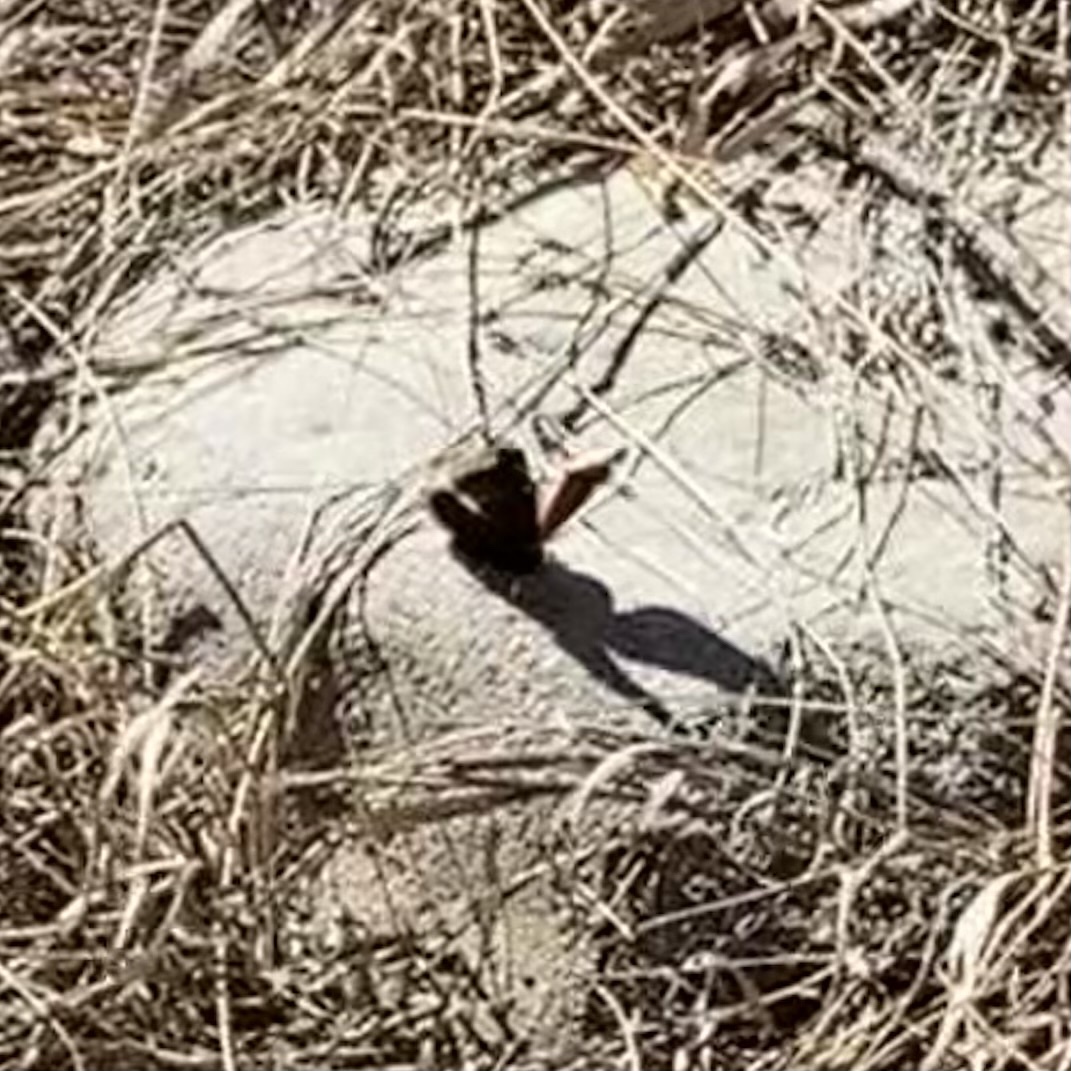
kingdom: Animalia
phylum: Arthropoda
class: Insecta
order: Lepidoptera
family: Nymphalidae
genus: Nymphalis
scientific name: Nymphalis antiopa
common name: Camberwell beauty
